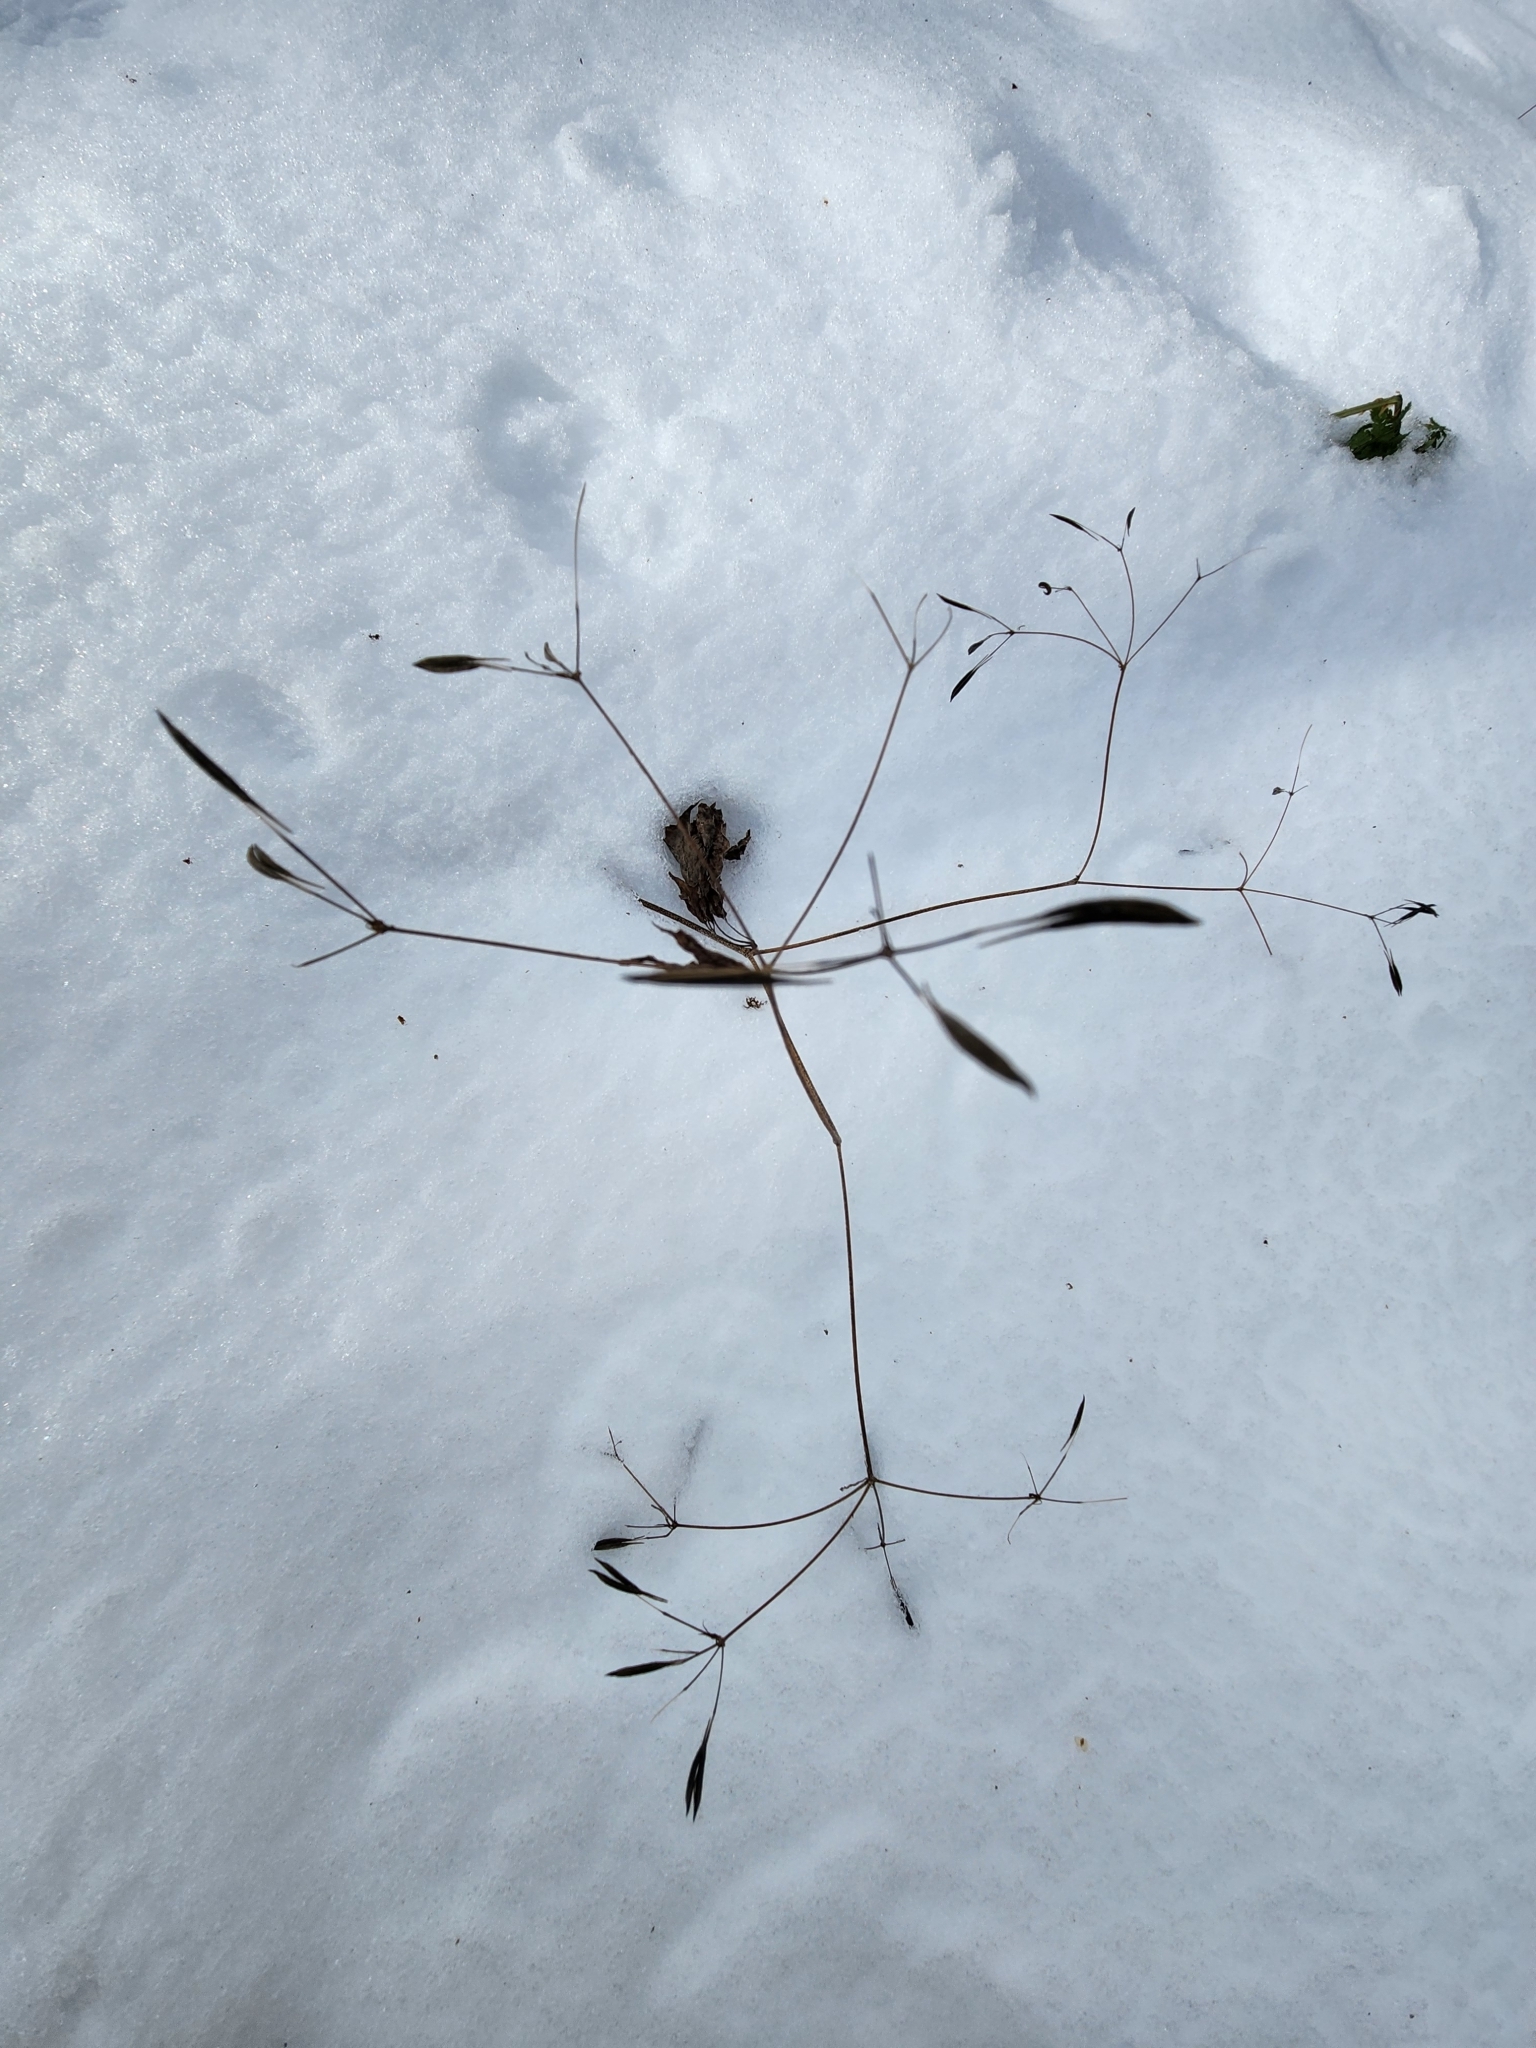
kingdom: Plantae
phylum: Tracheophyta
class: Magnoliopsida
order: Apiales
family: Apiaceae
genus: Osmorhiza
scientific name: Osmorhiza claytonii
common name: Hairy sweet cicely
